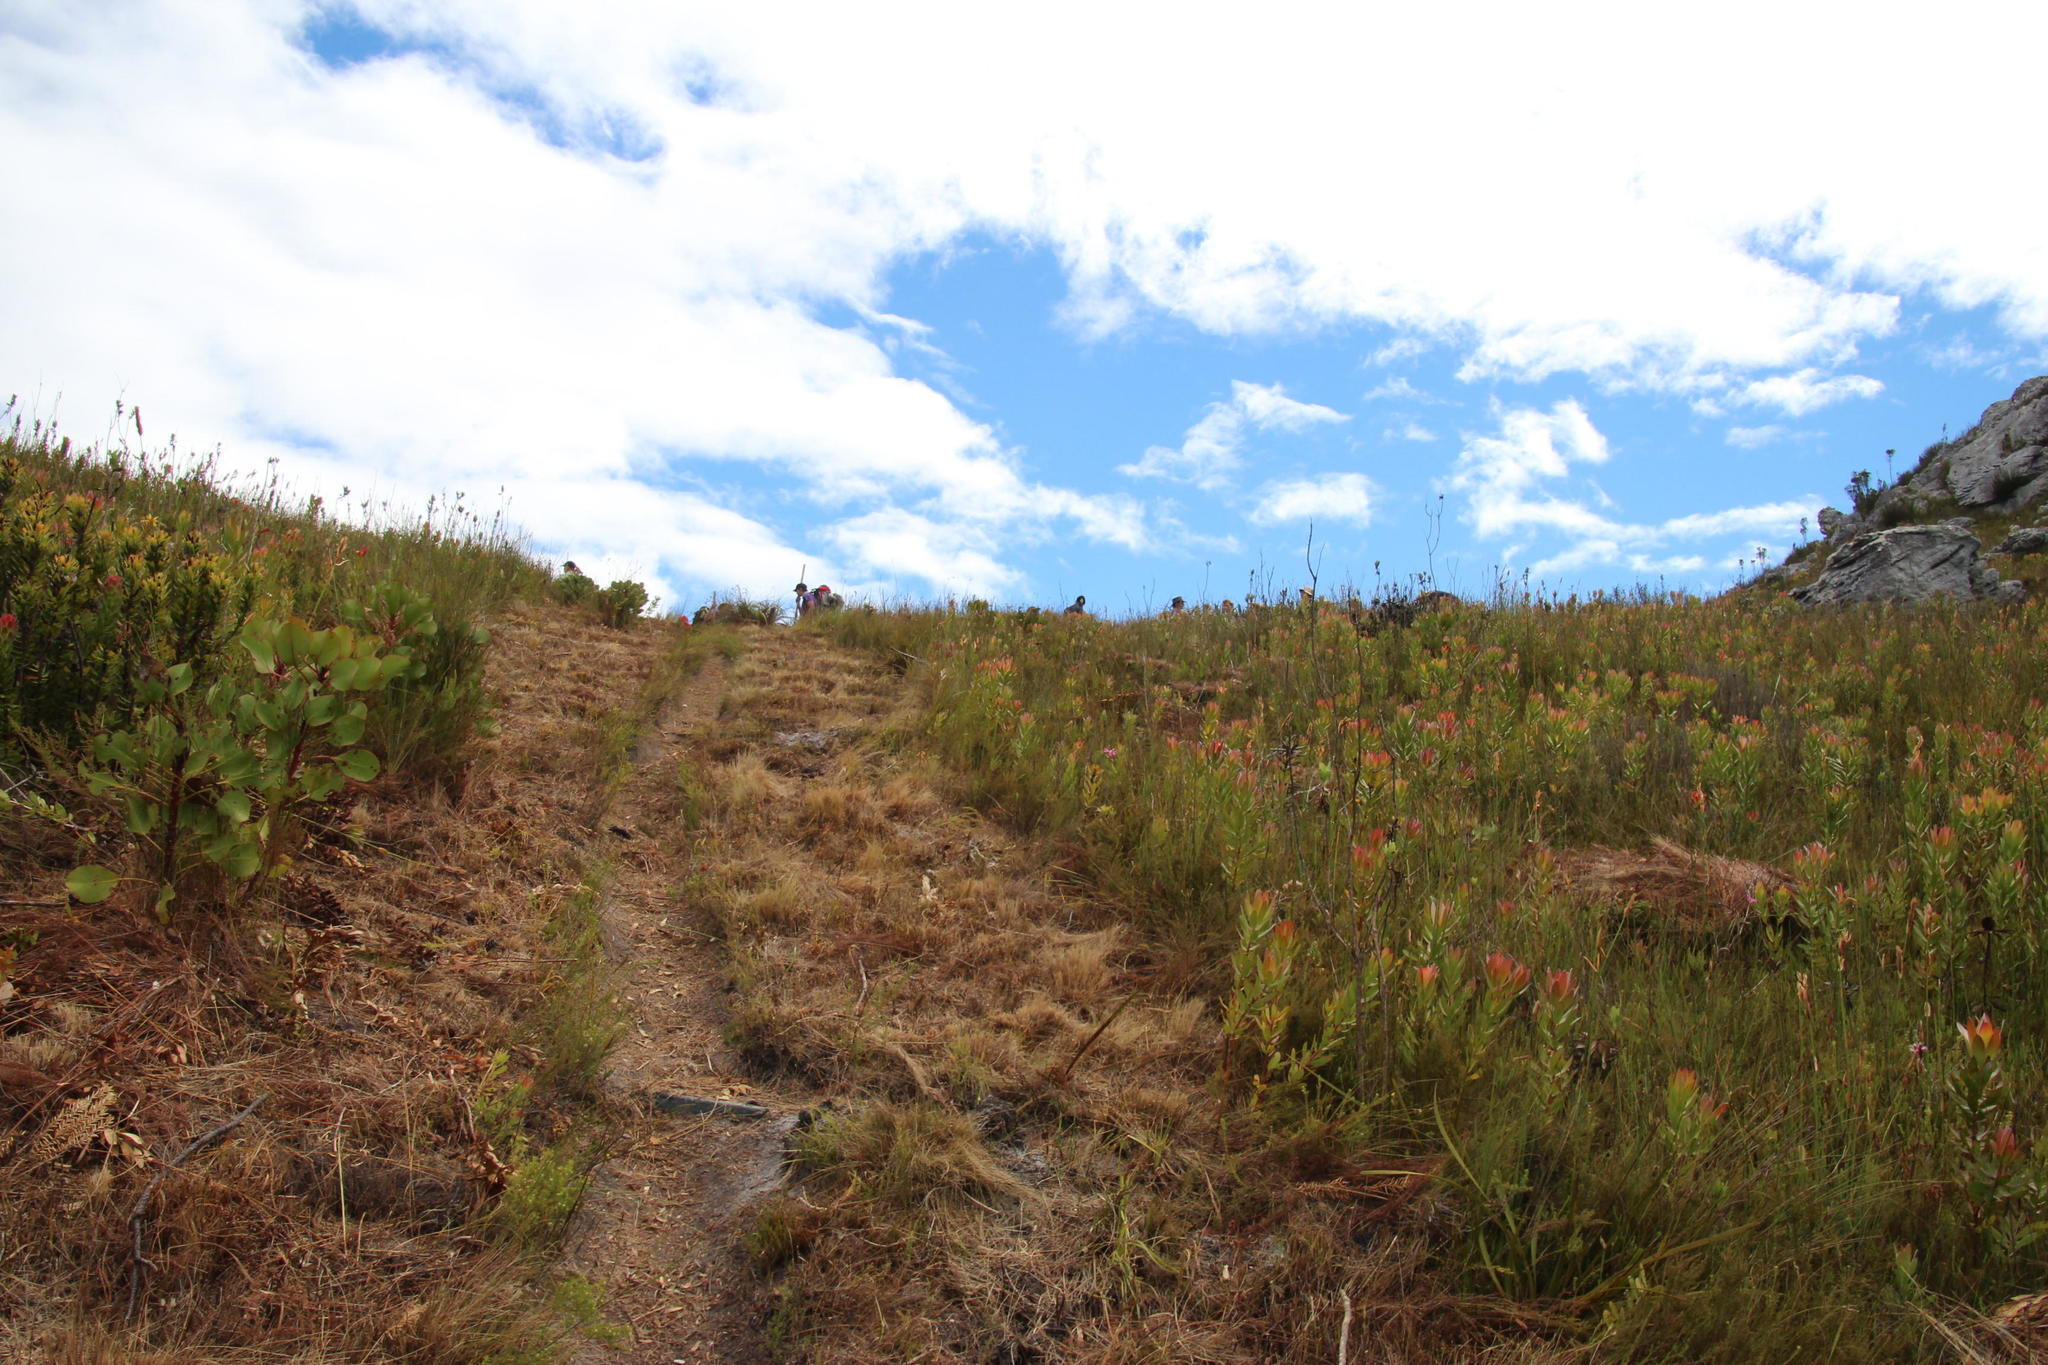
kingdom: Plantae
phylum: Tracheophyta
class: Magnoliopsida
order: Proteales
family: Proteaceae
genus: Leucadendron
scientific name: Leucadendron gandogeri
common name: Broad-leaf conebush
